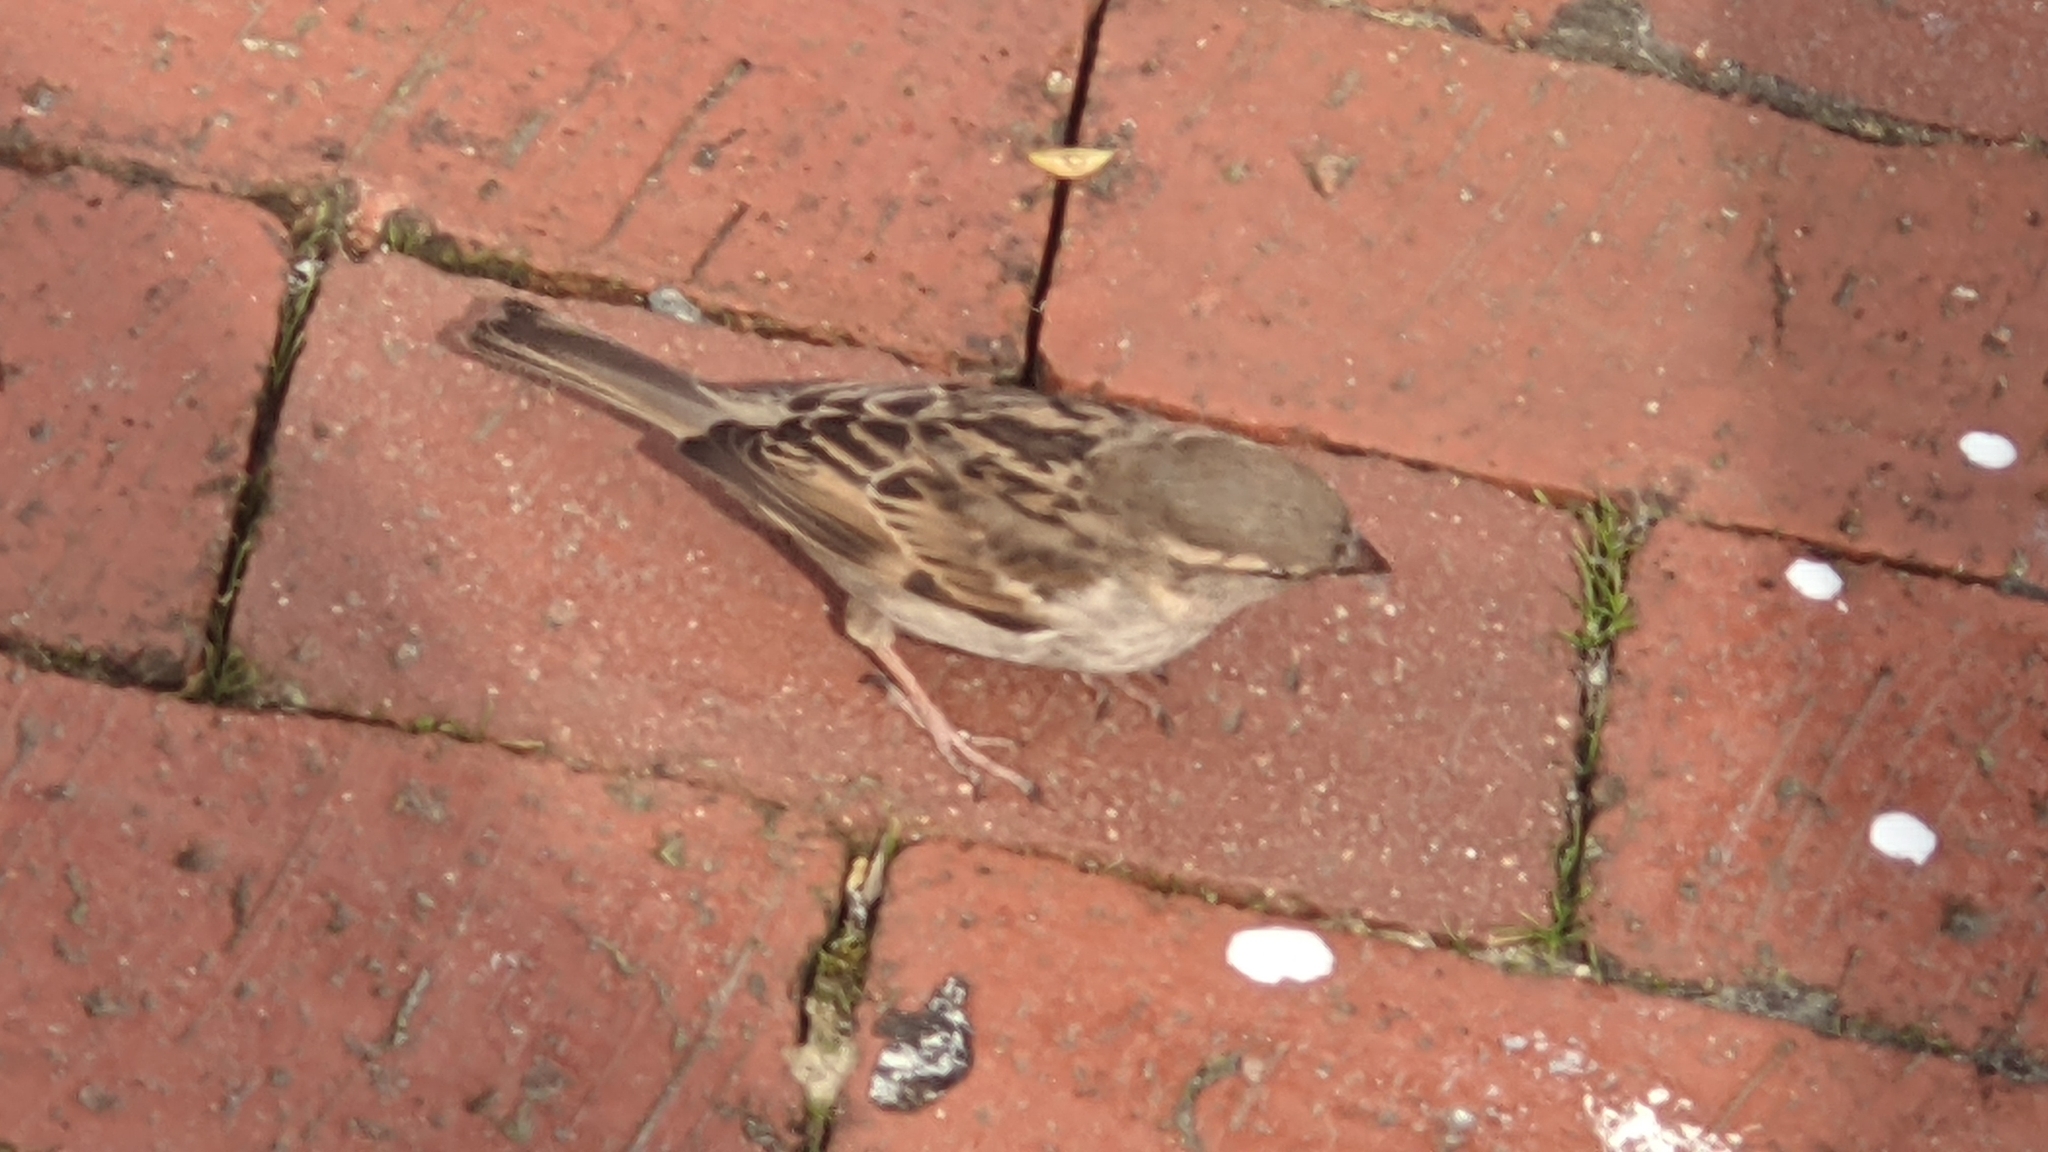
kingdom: Animalia
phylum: Chordata
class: Aves
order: Passeriformes
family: Passeridae
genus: Passer
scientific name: Passer domesticus
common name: House sparrow
